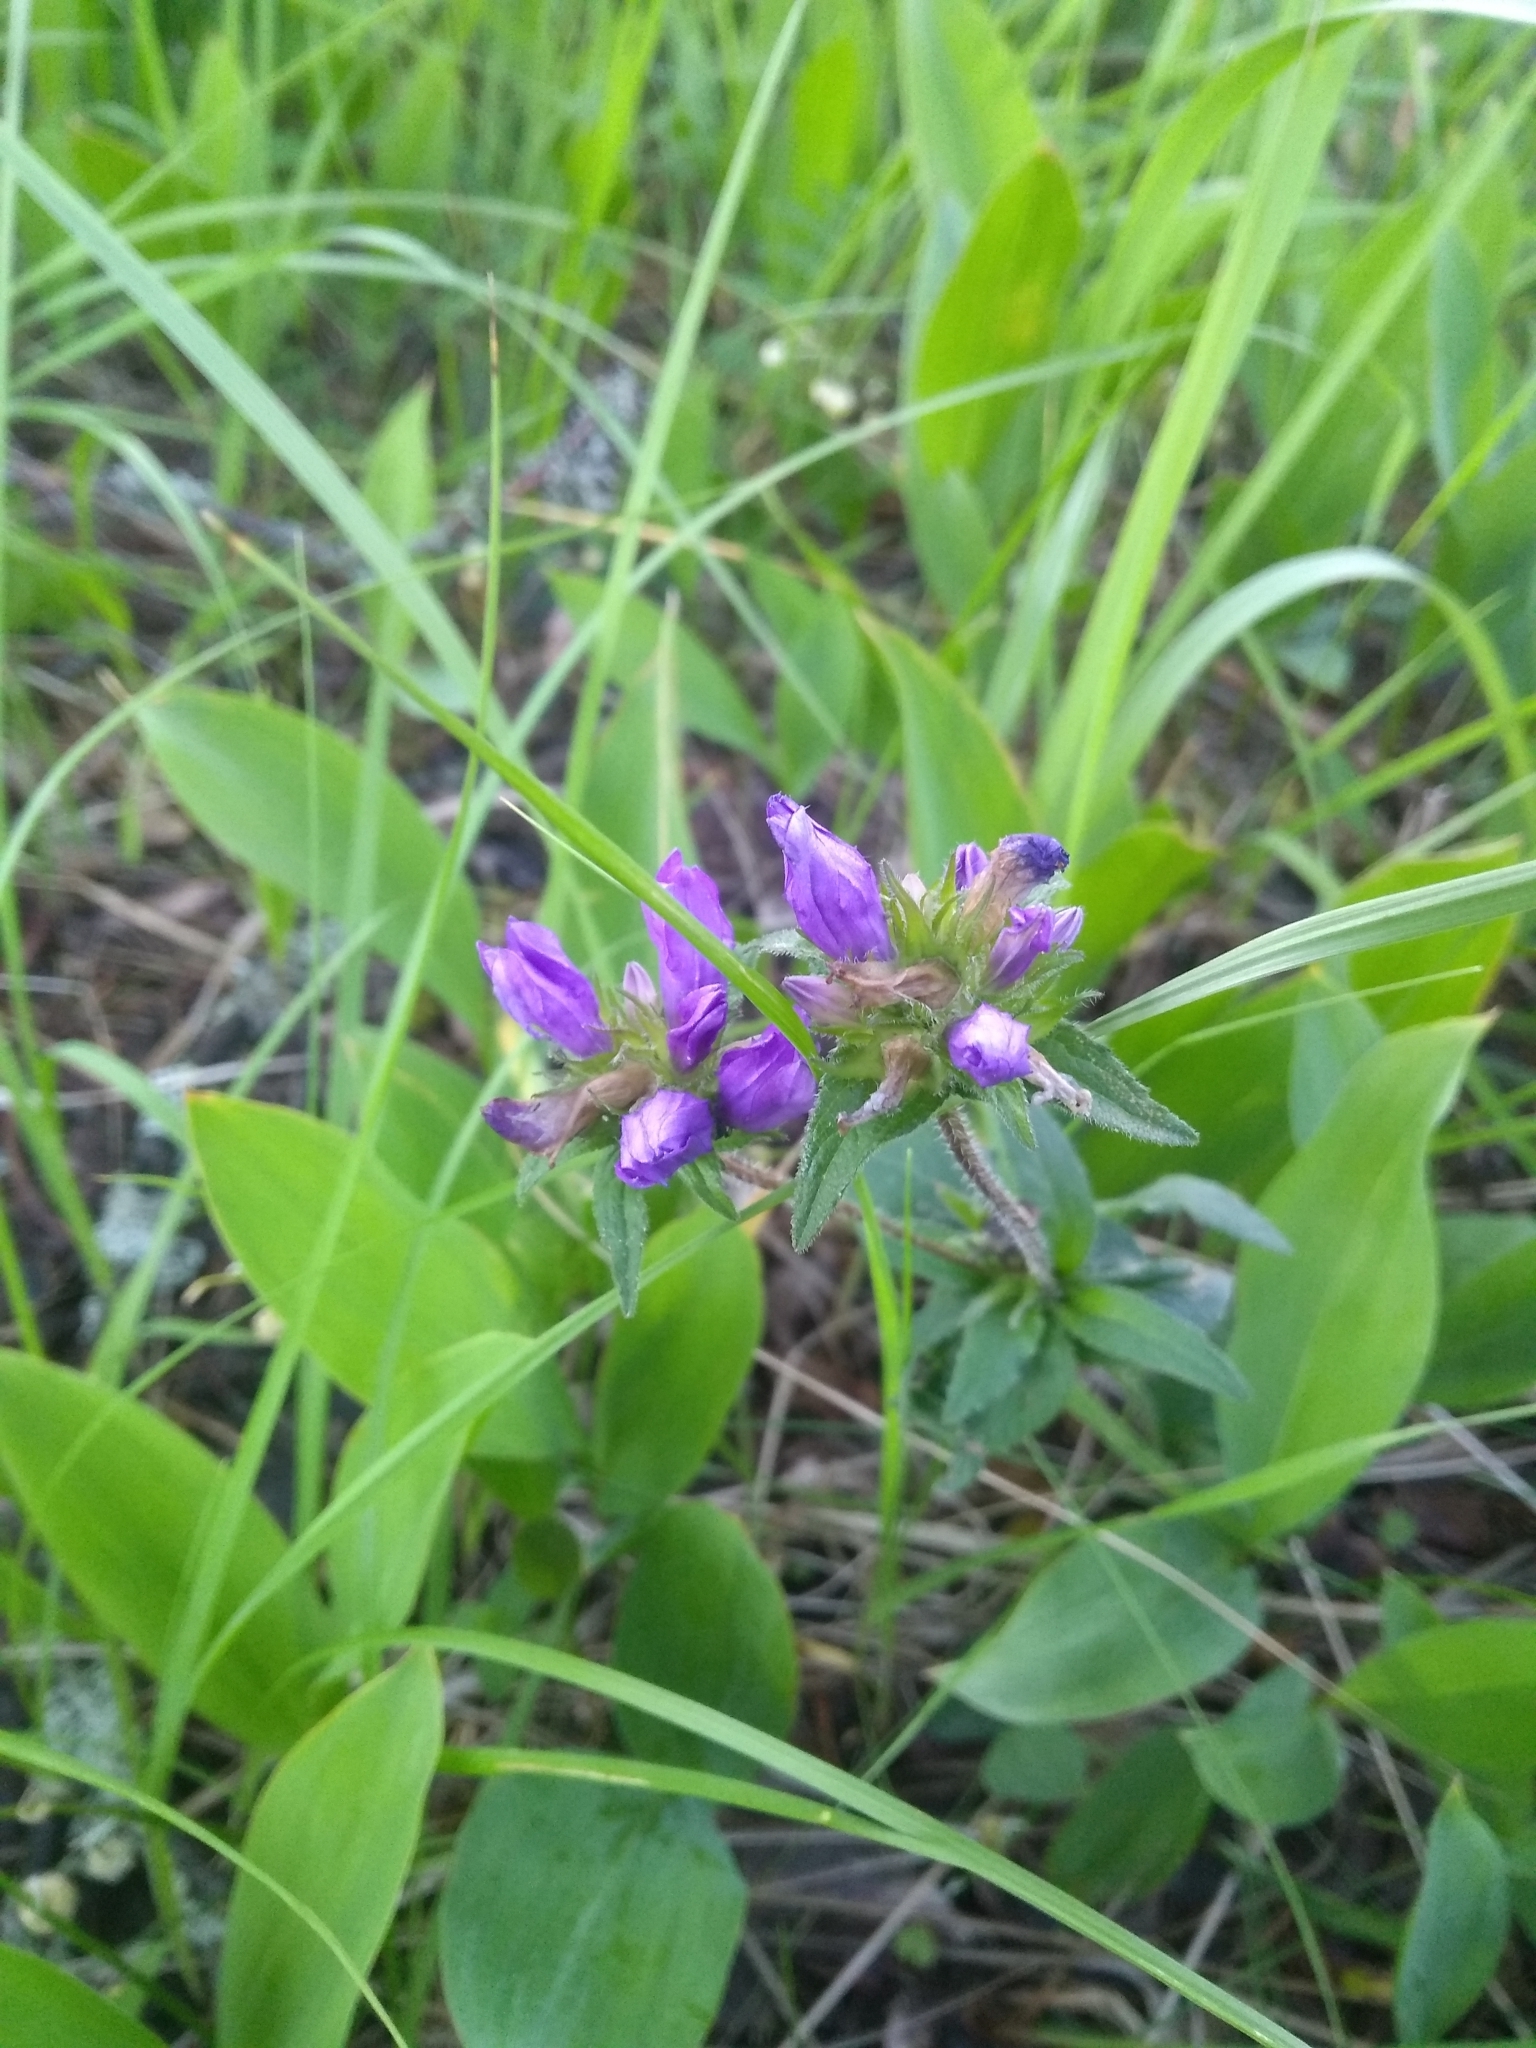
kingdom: Plantae
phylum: Tracheophyta
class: Magnoliopsida
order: Asterales
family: Campanulaceae
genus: Campanula
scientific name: Campanula glomerata
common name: Clustered bellflower
